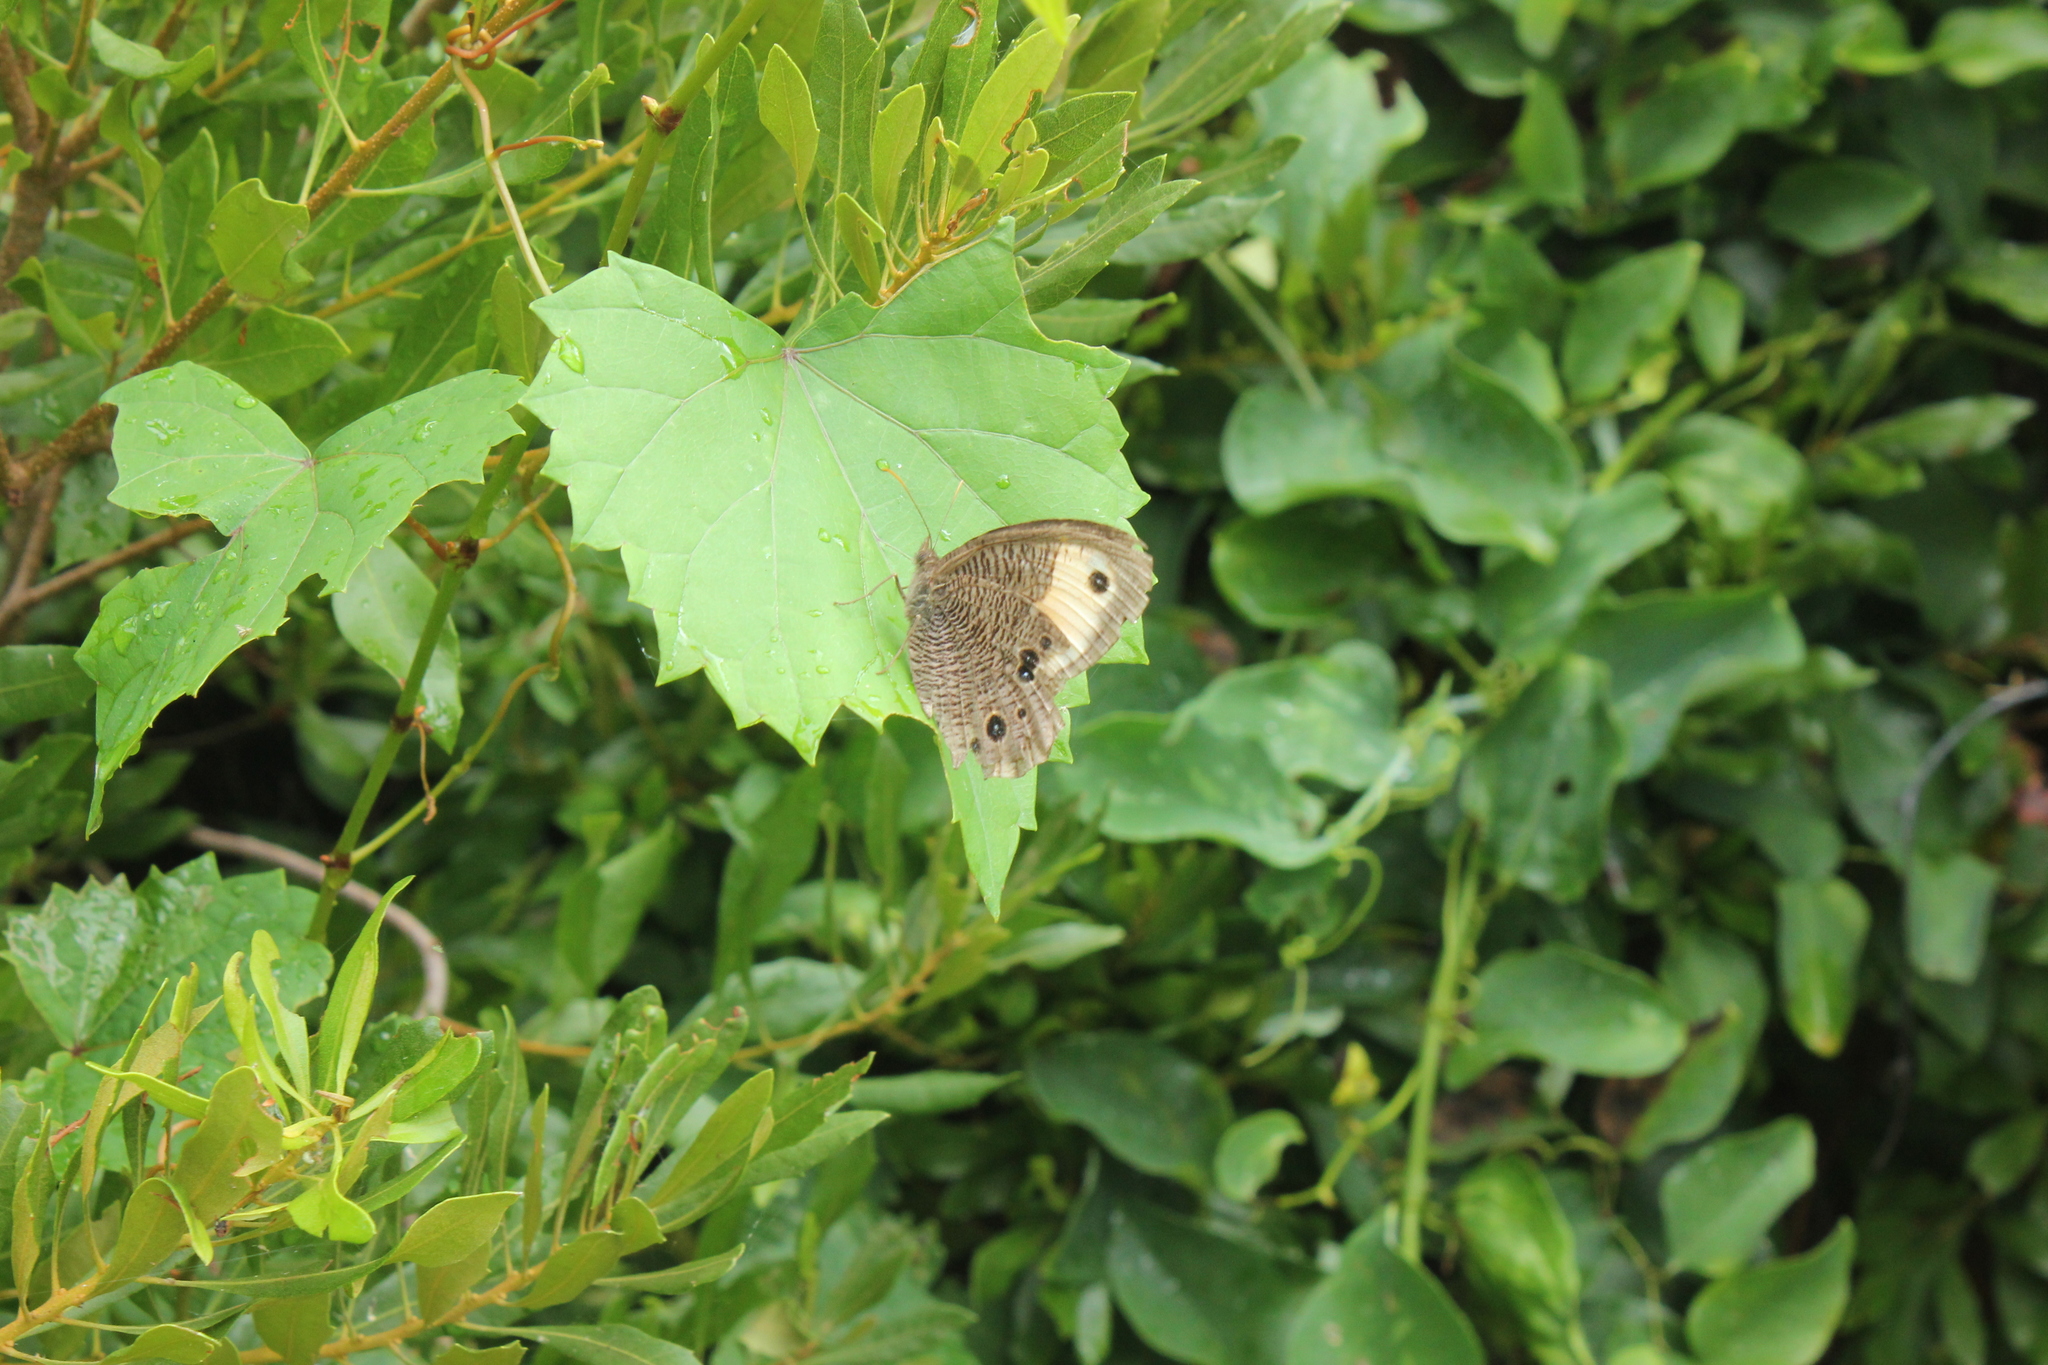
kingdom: Animalia
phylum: Arthropoda
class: Insecta
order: Lepidoptera
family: Nymphalidae
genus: Cercyonis
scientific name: Cercyonis pegala
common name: Common wood-nymph
